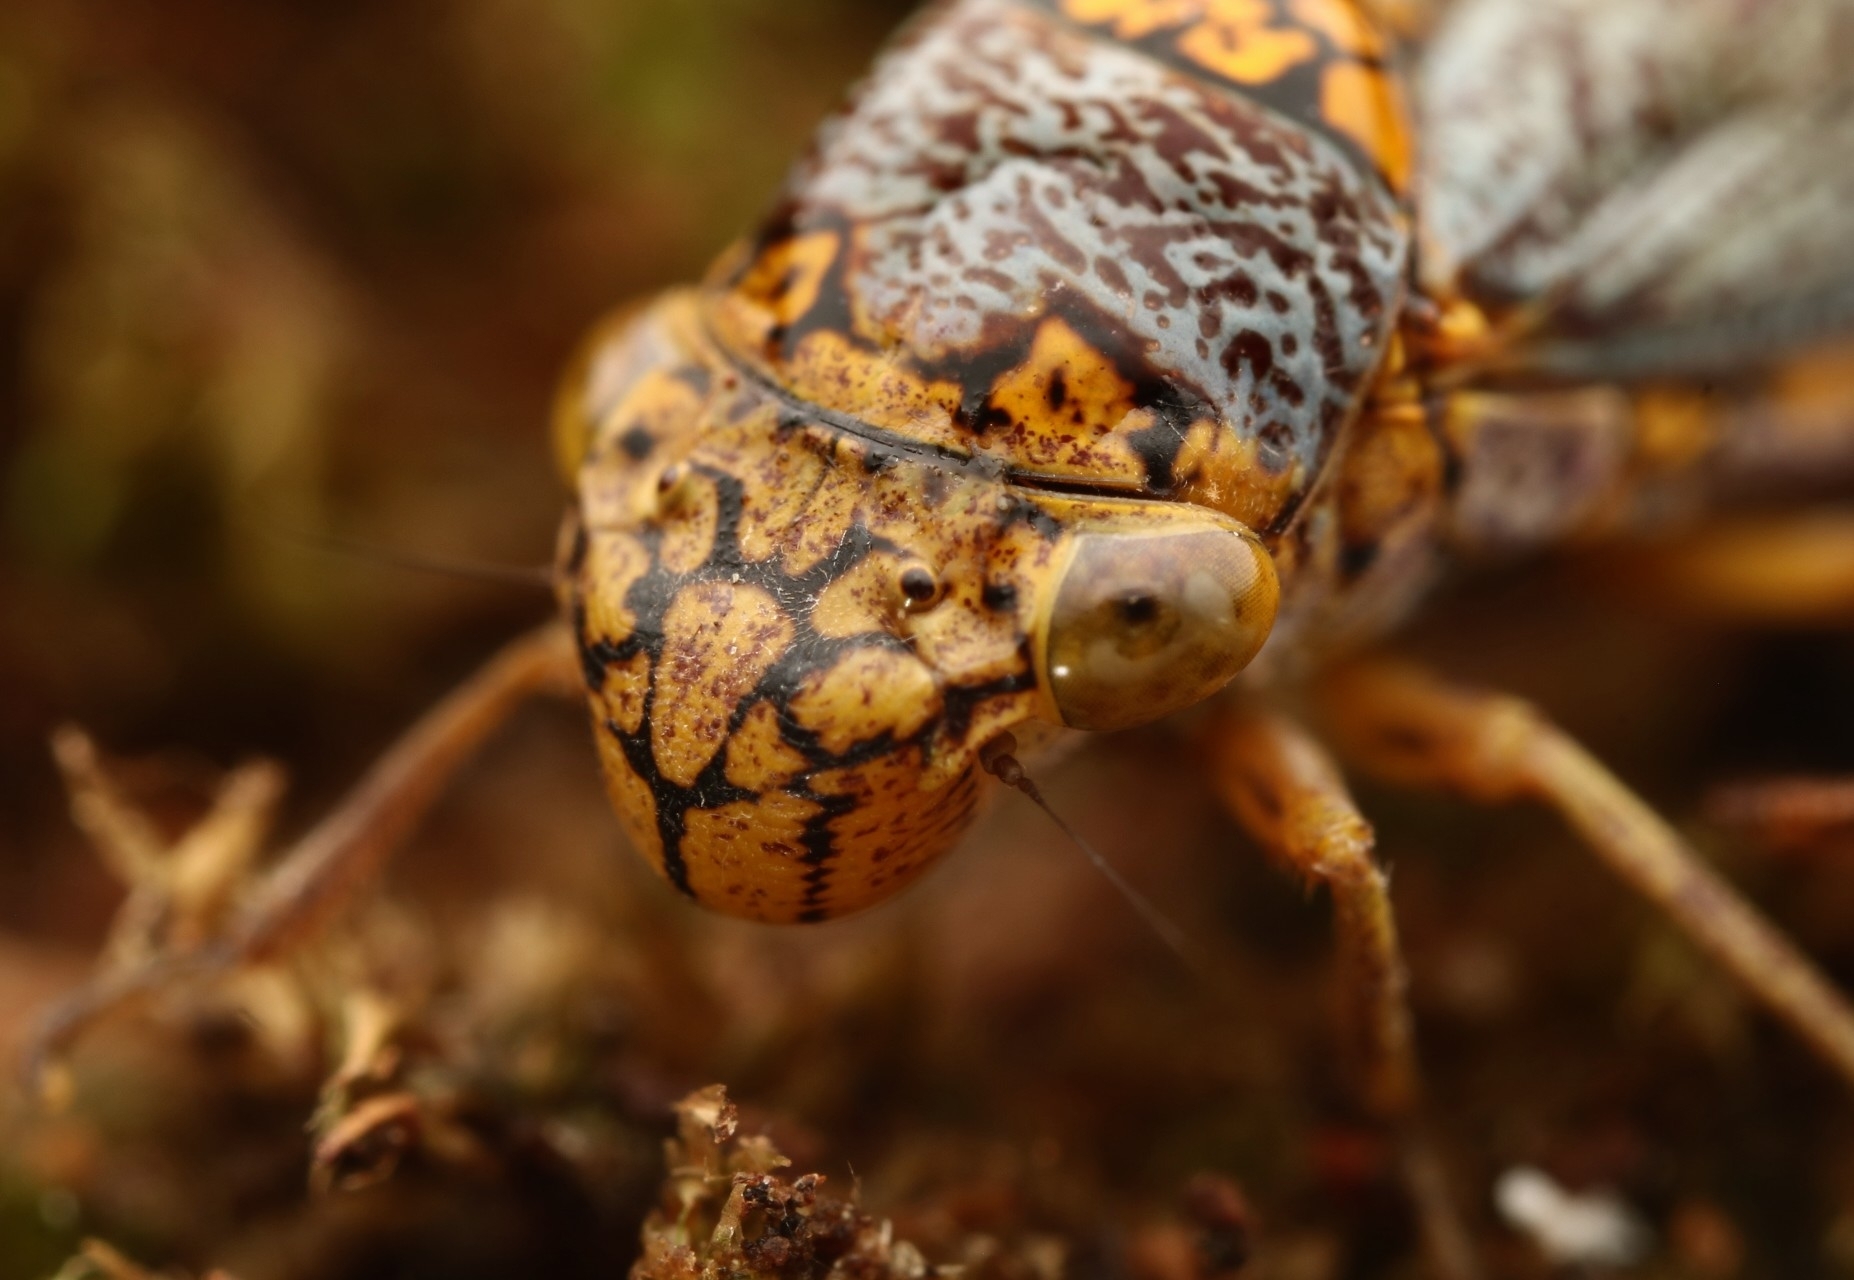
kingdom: Animalia
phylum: Arthropoda
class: Insecta
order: Hemiptera
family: Cicadellidae
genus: Oncometopia
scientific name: Oncometopia orbona
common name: Broad-headed sharpshooter
